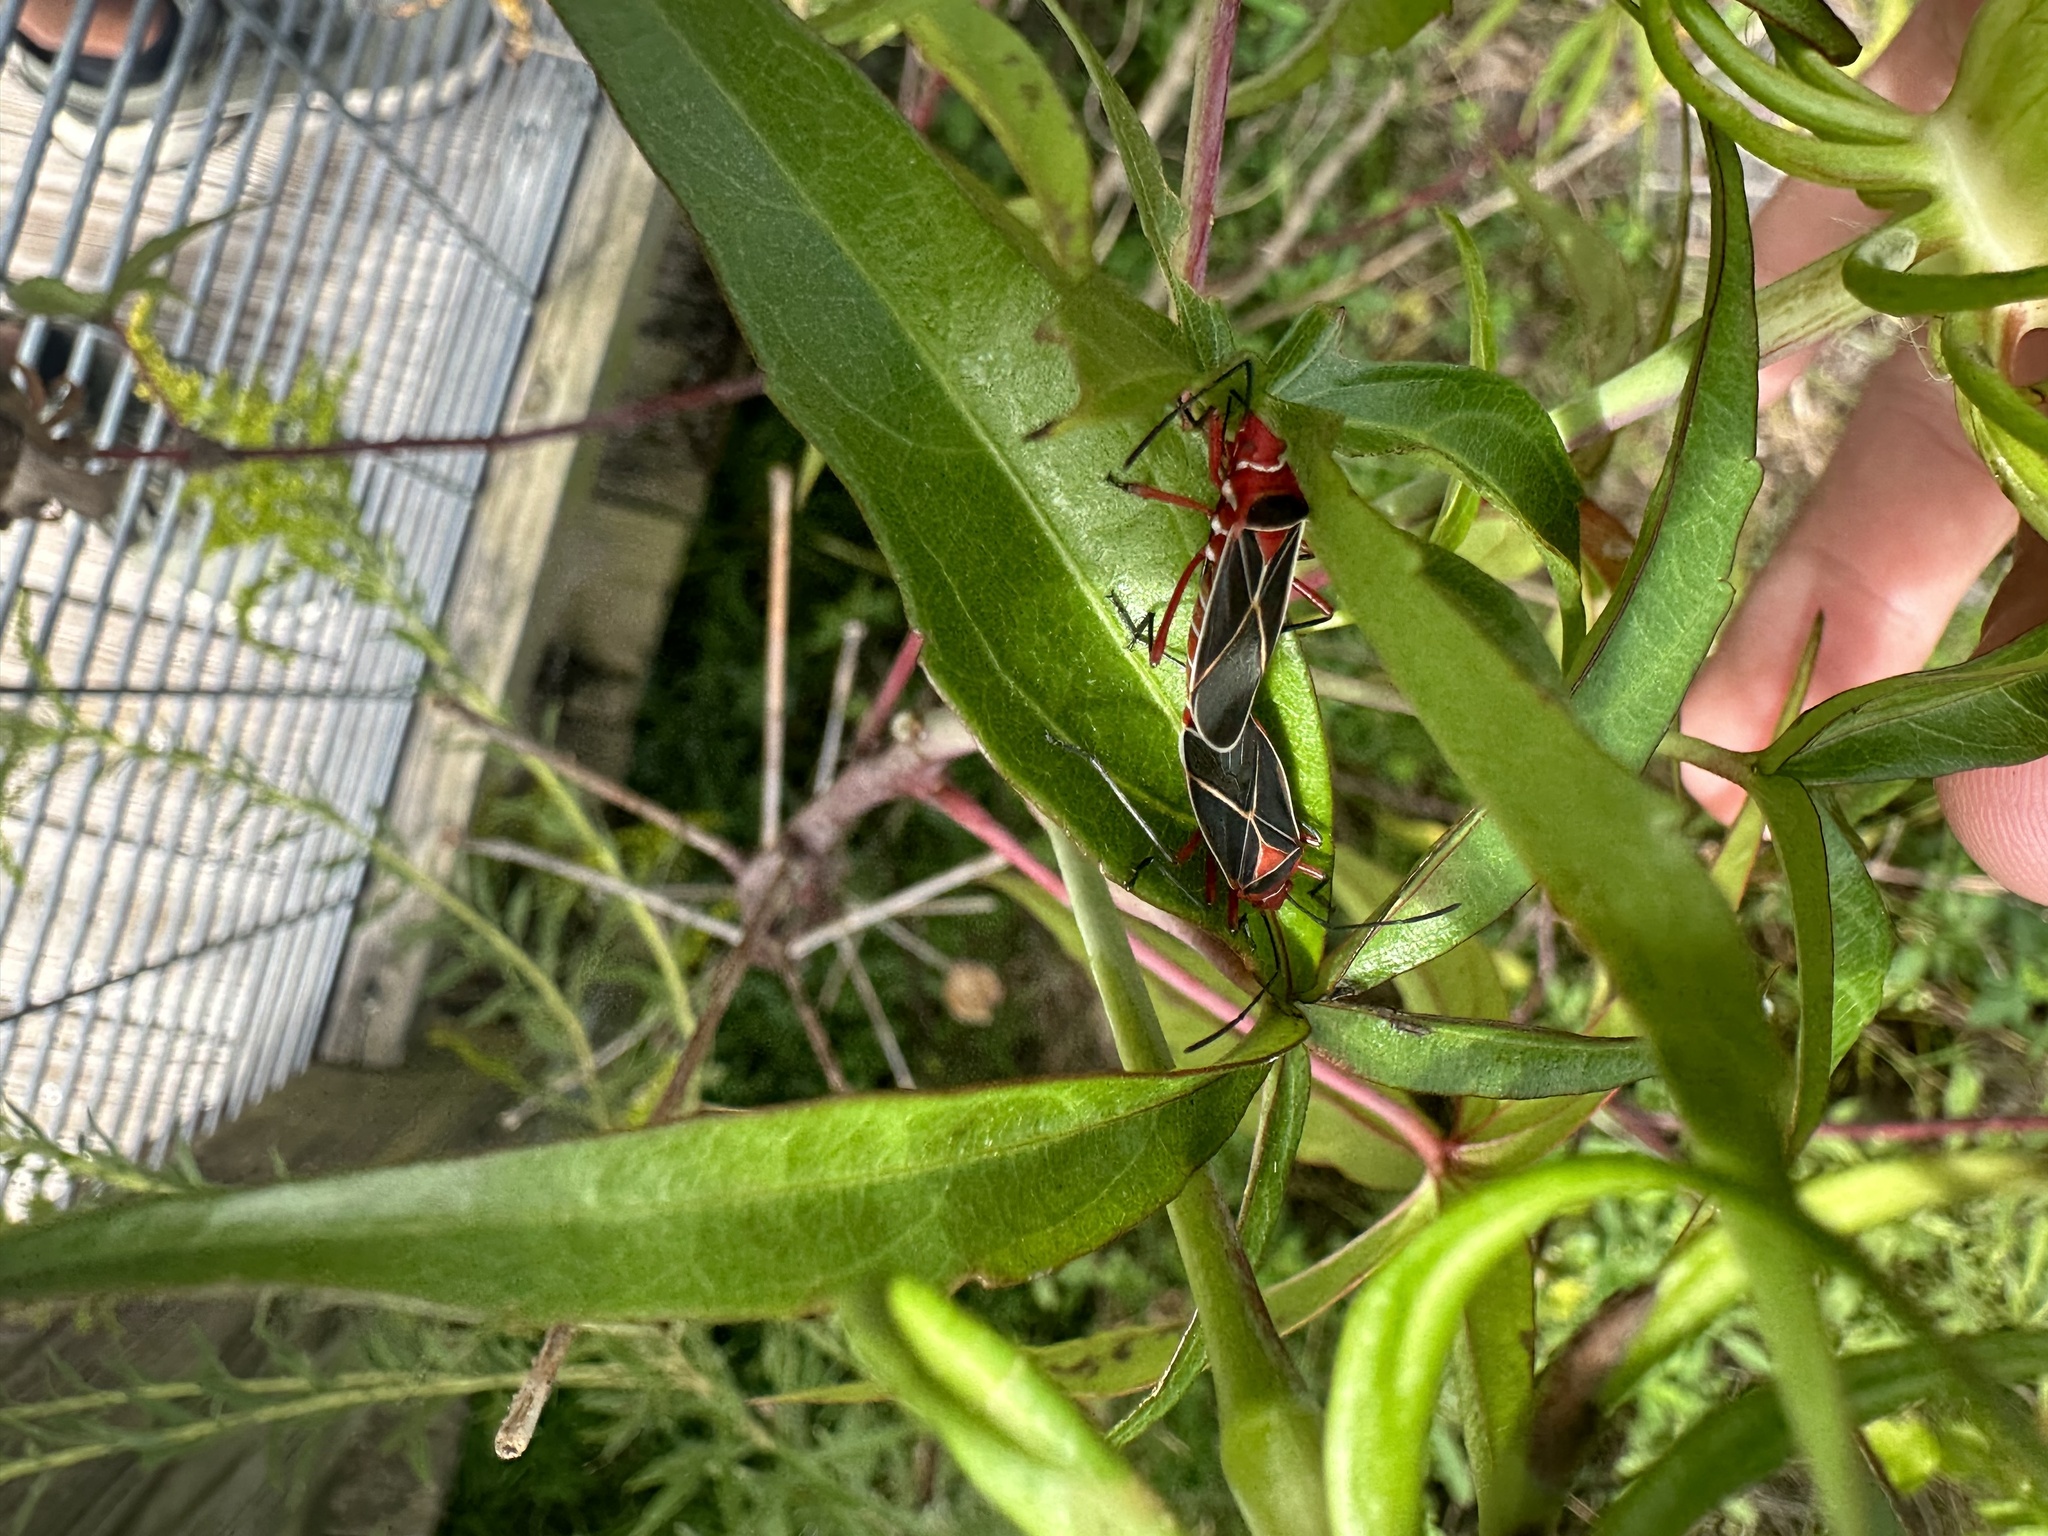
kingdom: Animalia
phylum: Arthropoda
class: Insecta
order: Hemiptera
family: Pyrrhocoridae
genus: Dysdercus
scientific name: Dysdercus suturellus
